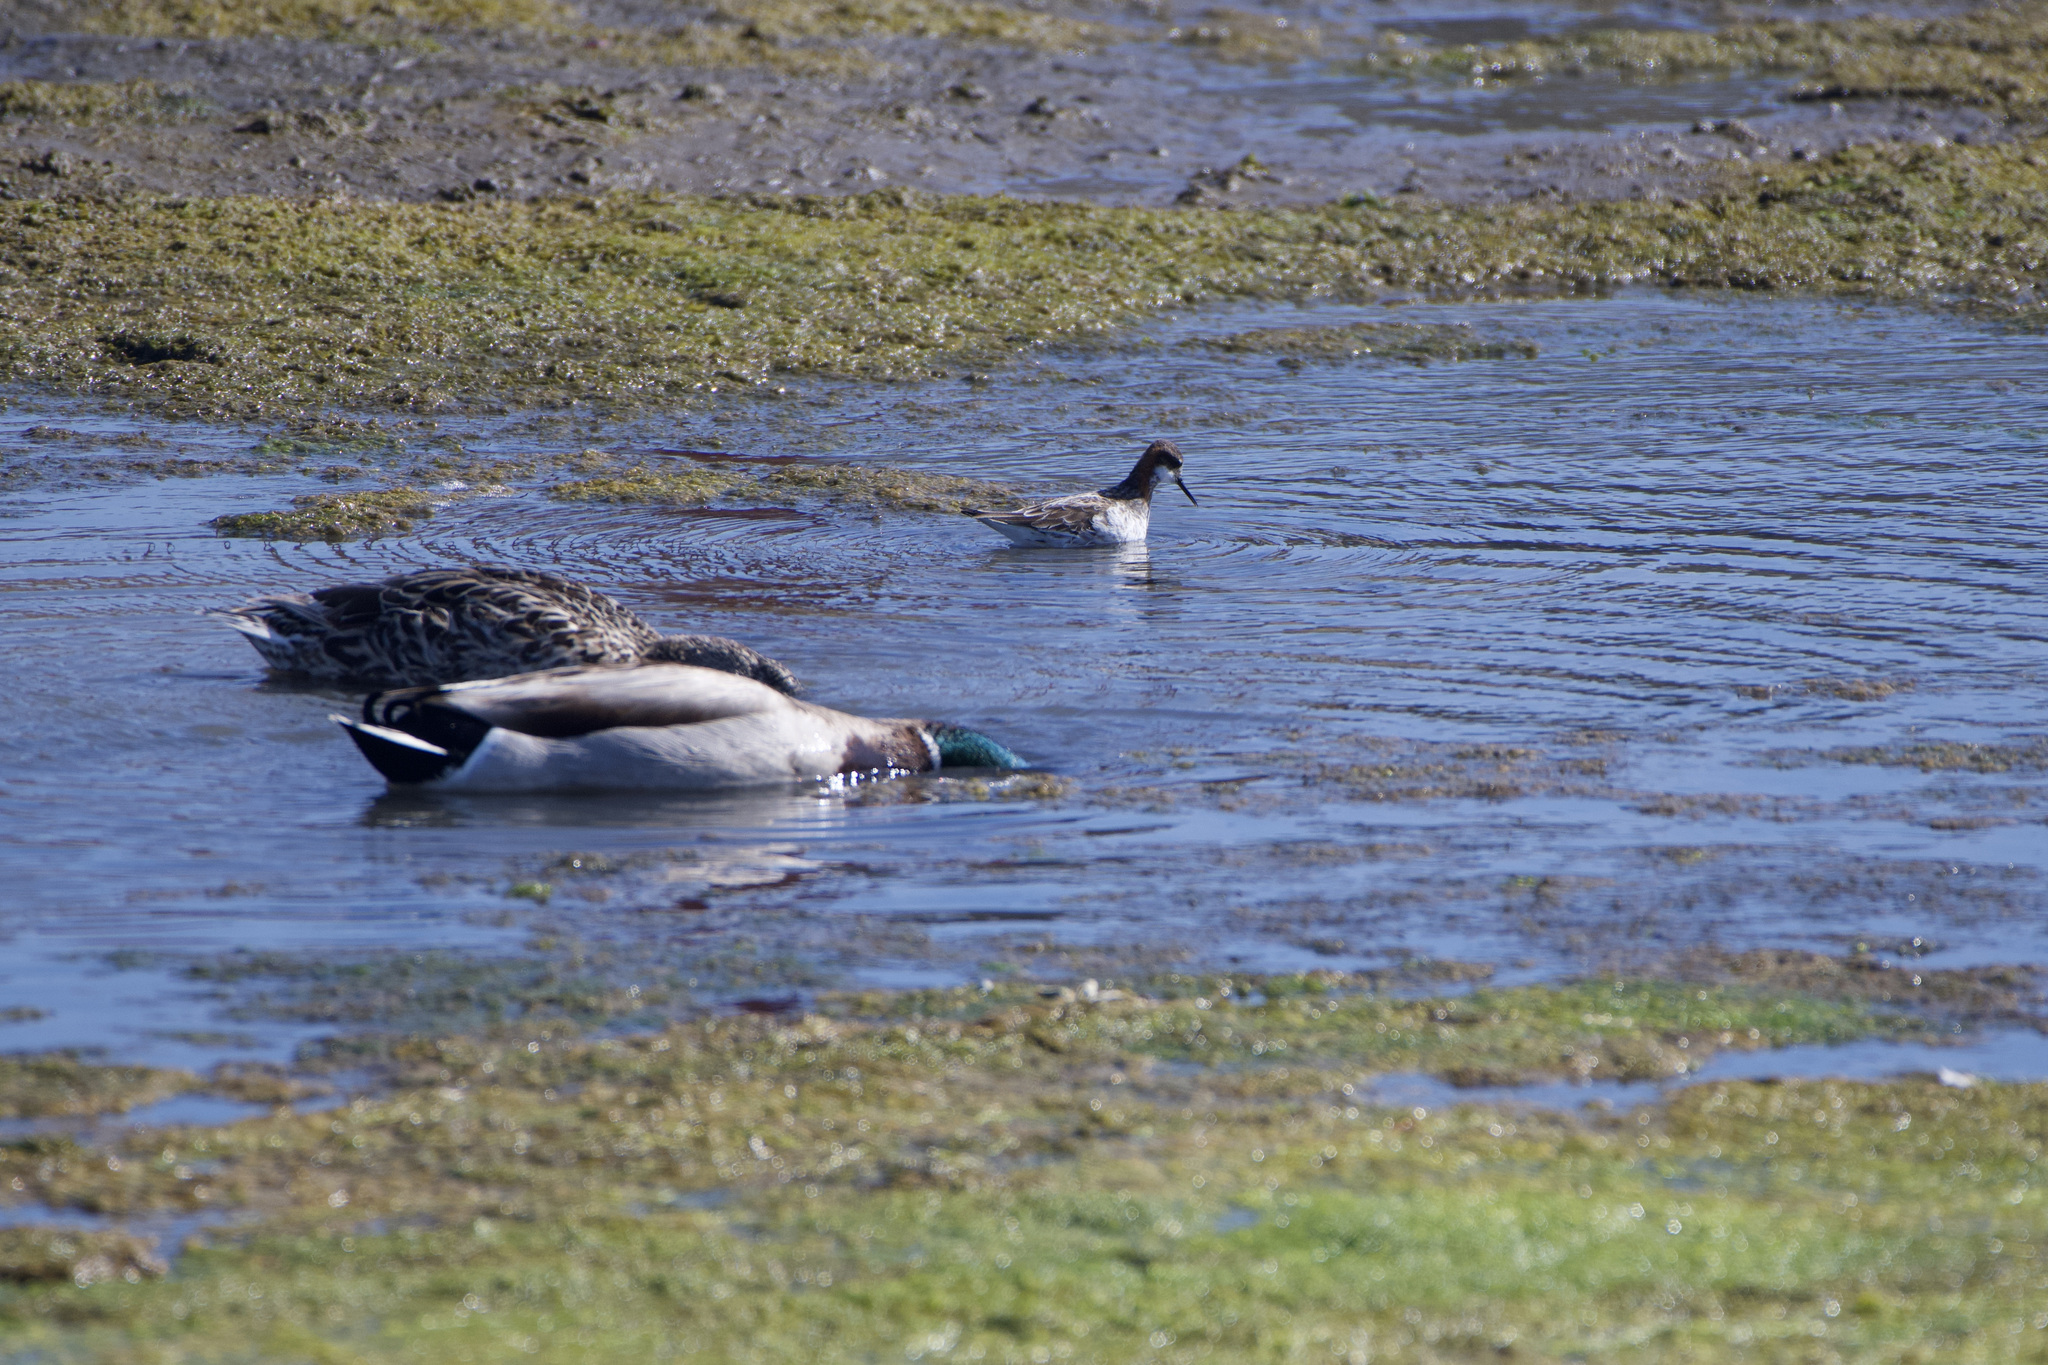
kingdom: Animalia
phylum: Chordata
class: Aves
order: Charadriiformes
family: Scolopacidae
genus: Phalaropus
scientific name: Phalaropus lobatus
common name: Red-necked phalarope
